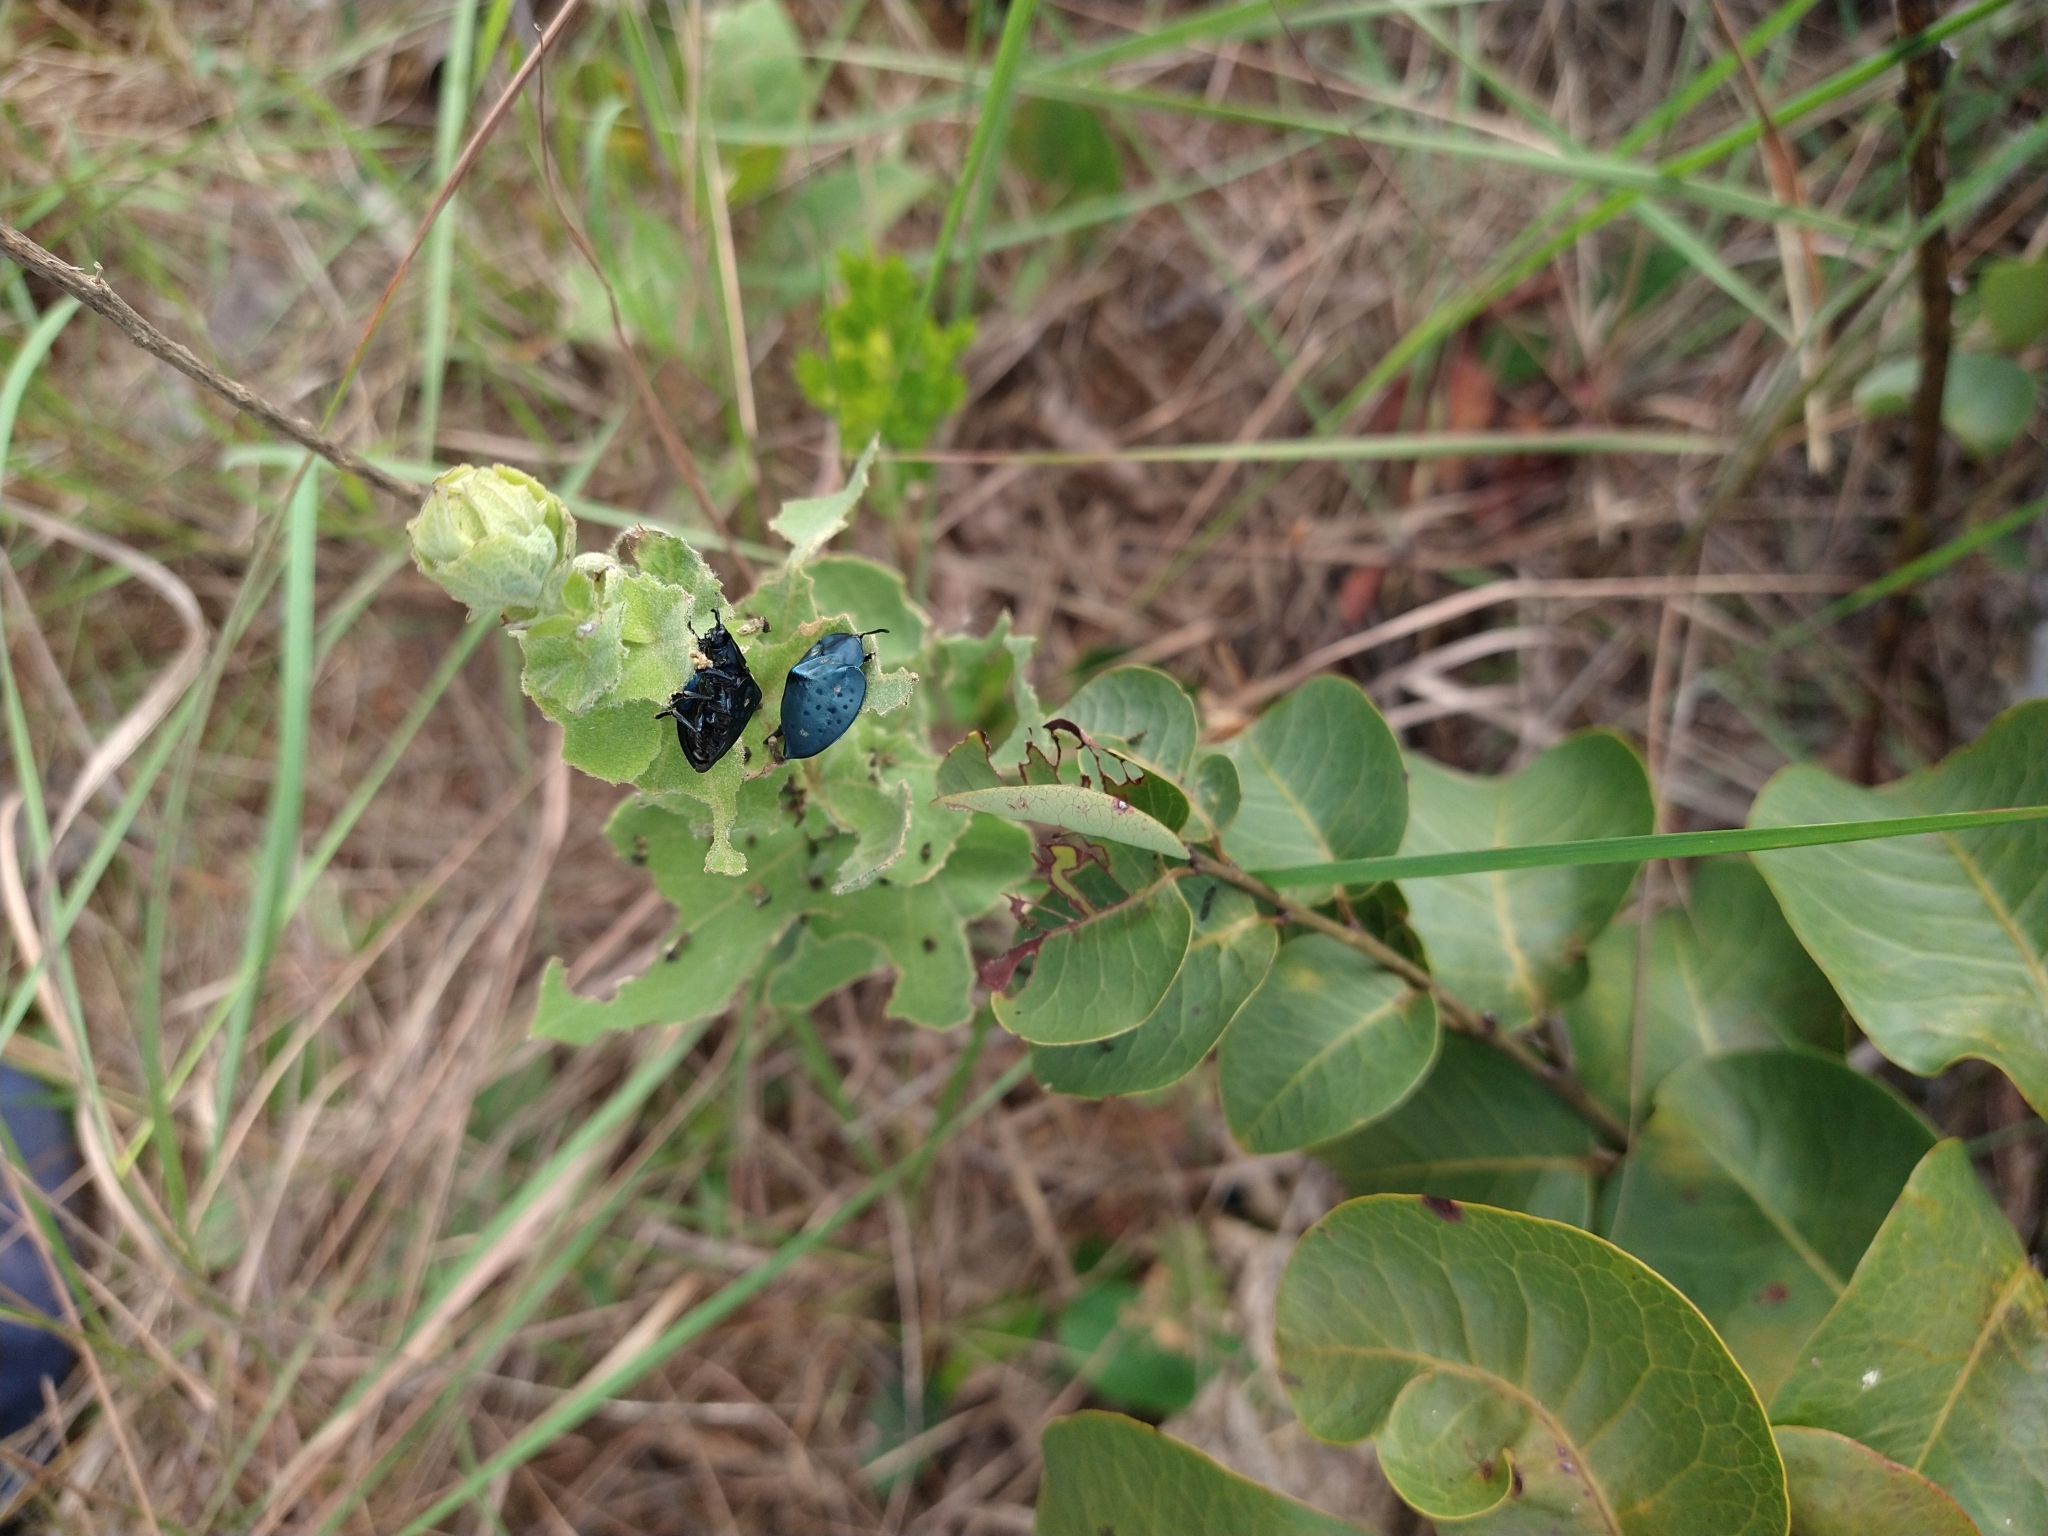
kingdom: Animalia
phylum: Arthropoda
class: Insecta
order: Coleoptera
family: Chrysomelidae
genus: Stolas
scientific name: Stolas conspersa
